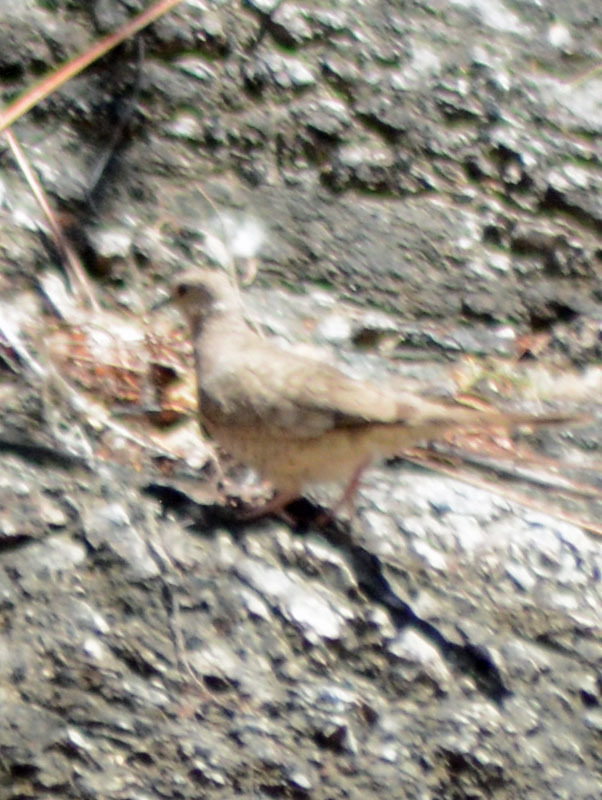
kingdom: Animalia
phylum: Chordata
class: Aves
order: Columbiformes
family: Columbidae
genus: Columbina
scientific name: Columbina inca
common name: Inca dove
